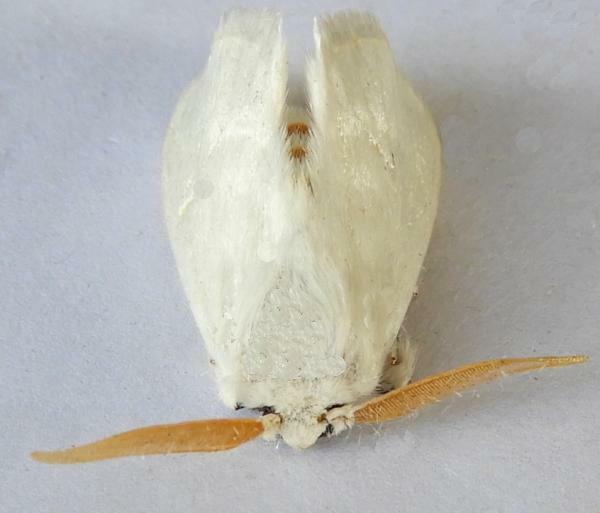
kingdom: Animalia
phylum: Arthropoda
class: Insecta
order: Lepidoptera
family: Megalopygidae
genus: Norape
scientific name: Norape sorpresa
